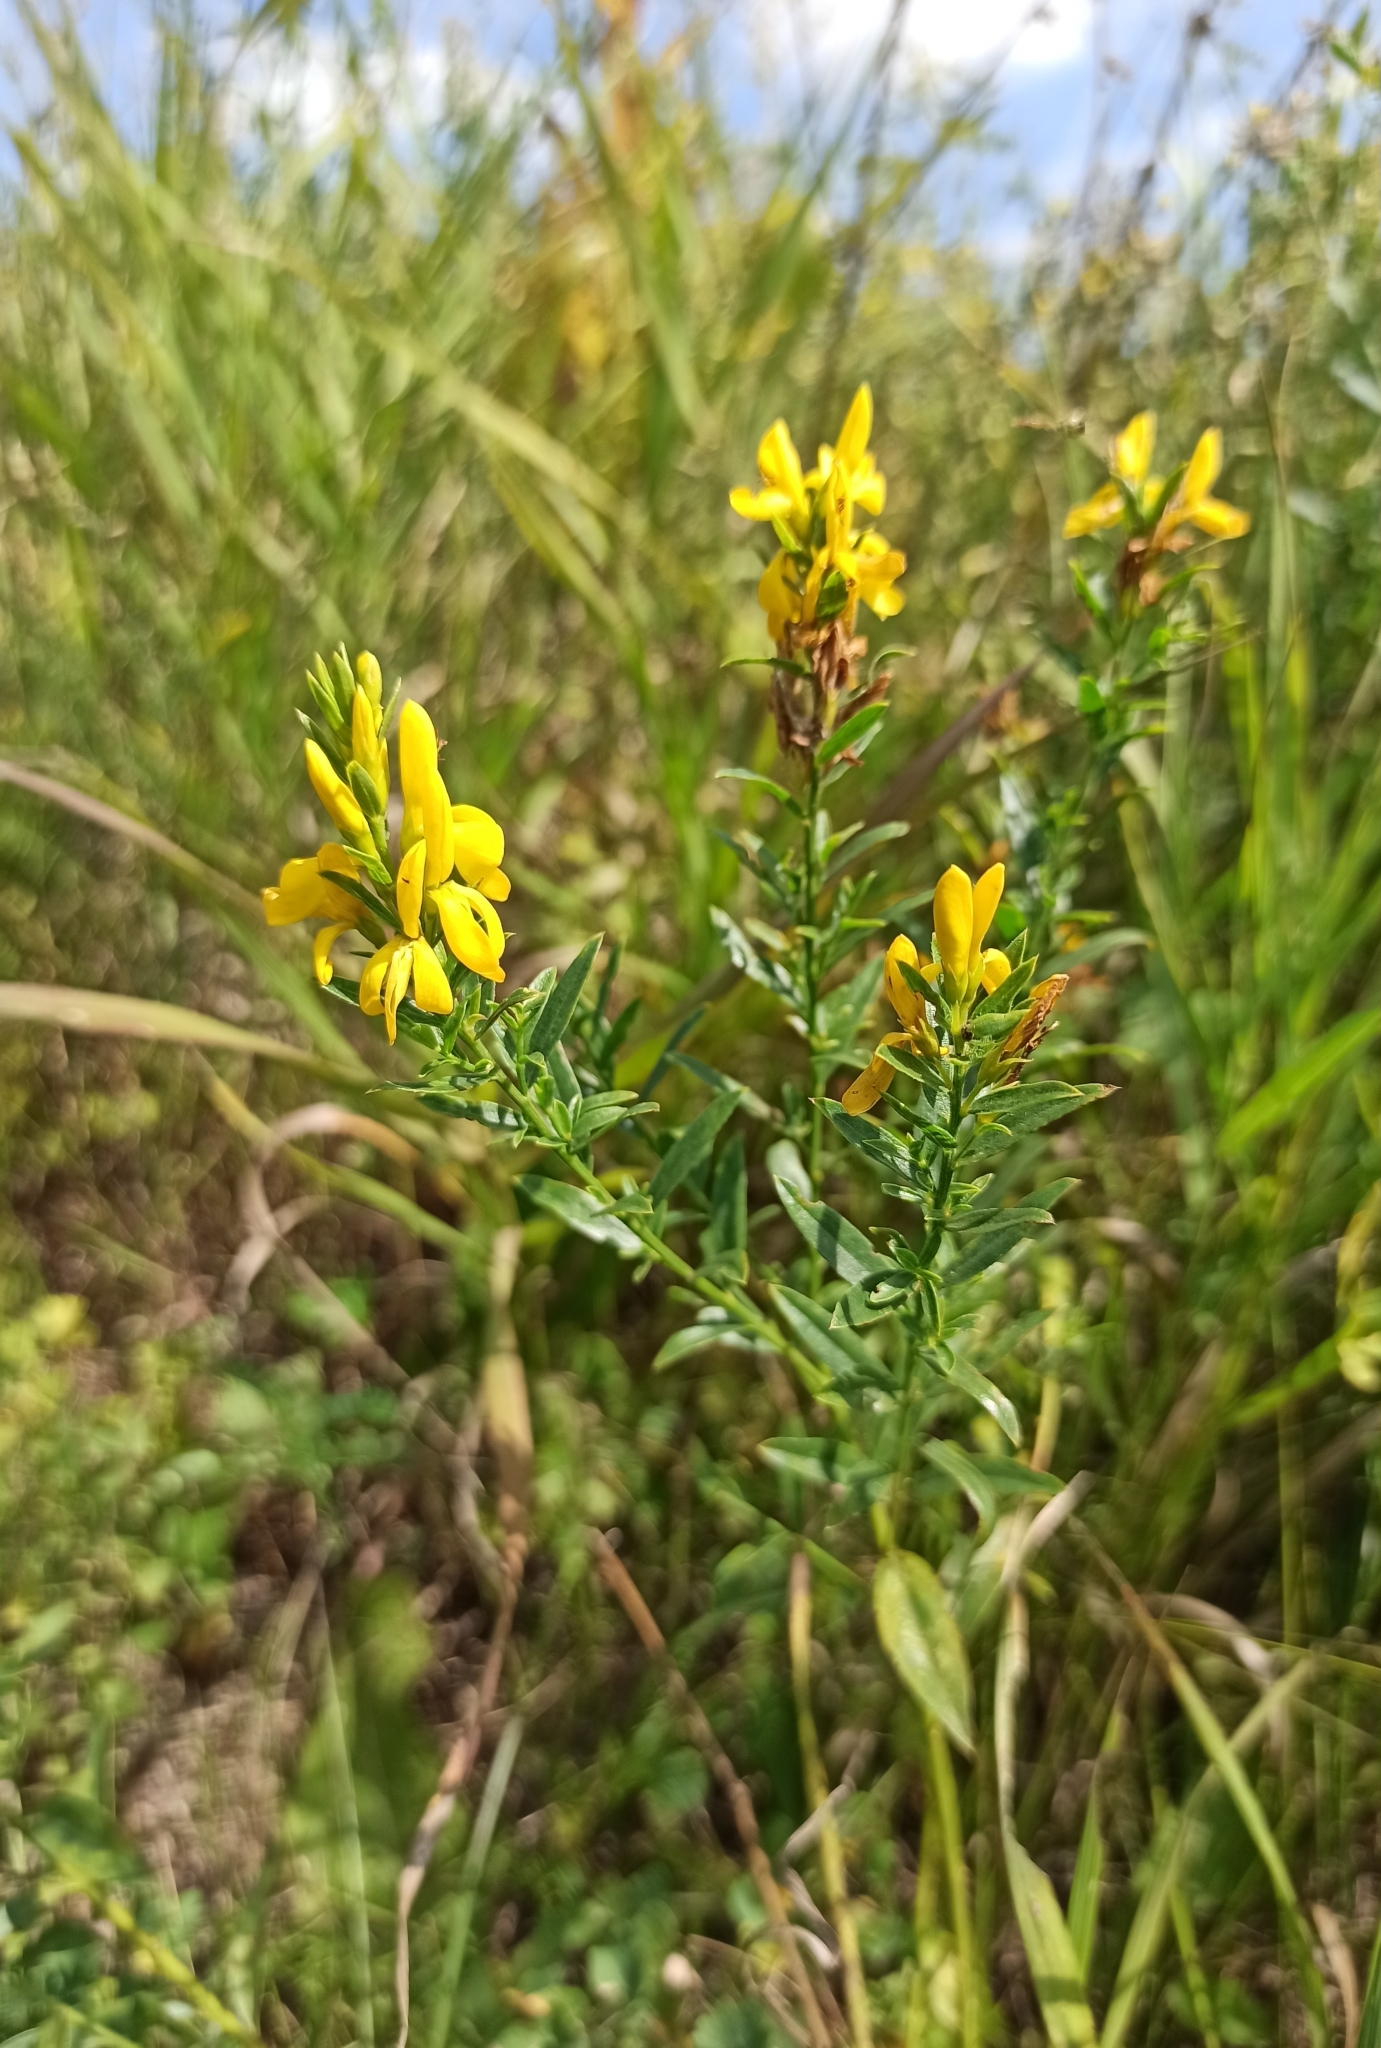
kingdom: Plantae
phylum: Tracheophyta
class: Magnoliopsida
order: Fabales
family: Fabaceae
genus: Genista
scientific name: Genista tinctoria
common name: Dyer's greenweed
